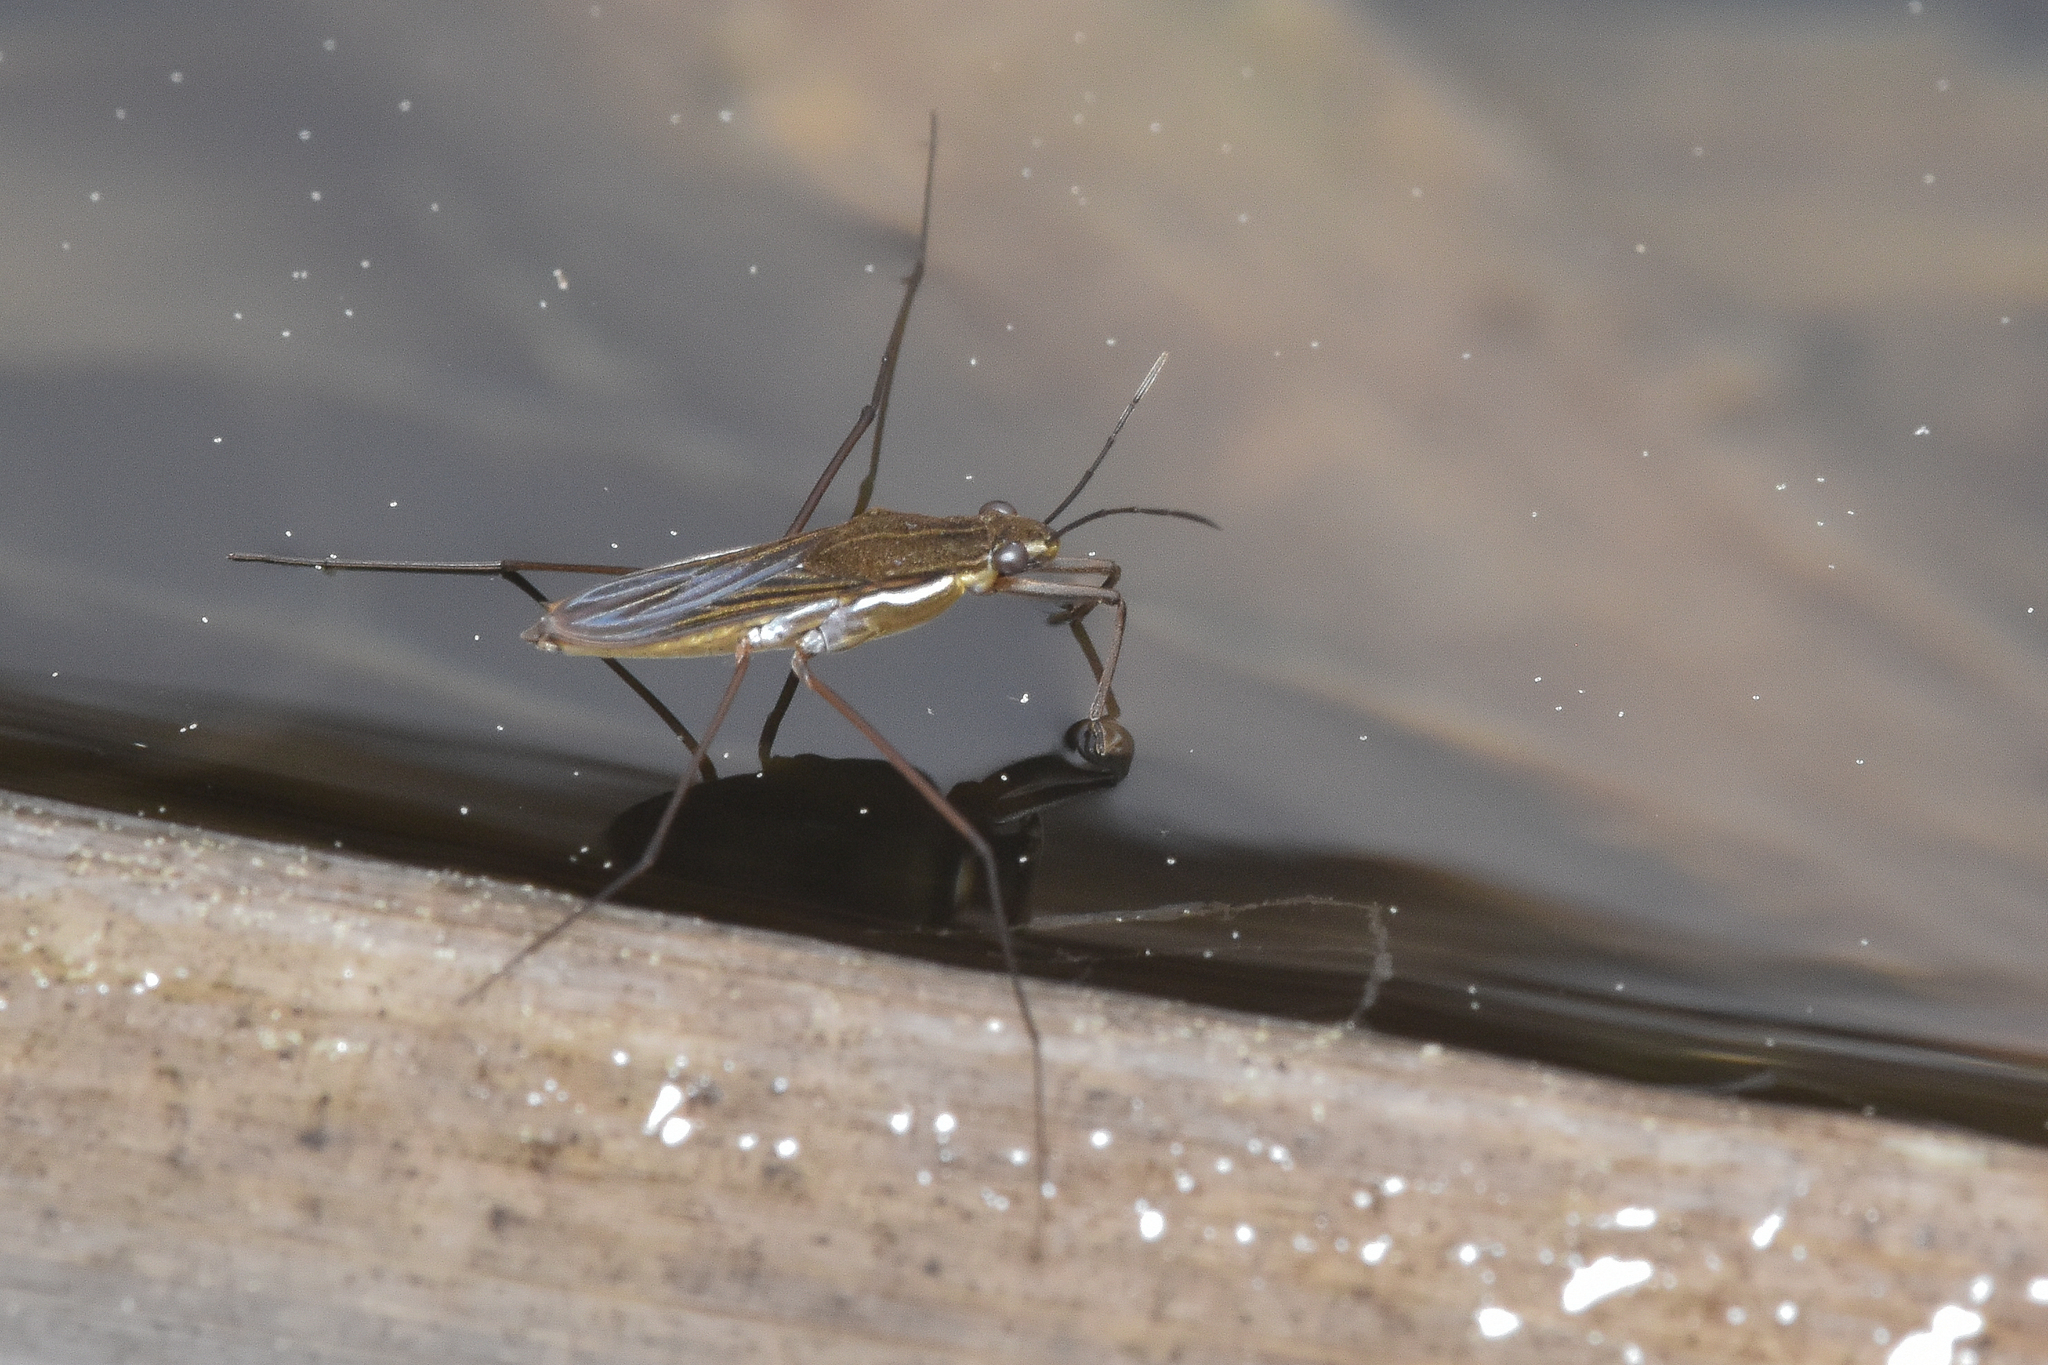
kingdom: Animalia
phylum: Arthropoda
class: Insecta
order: Hemiptera
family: Gerridae
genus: Gerris
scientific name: Gerris
